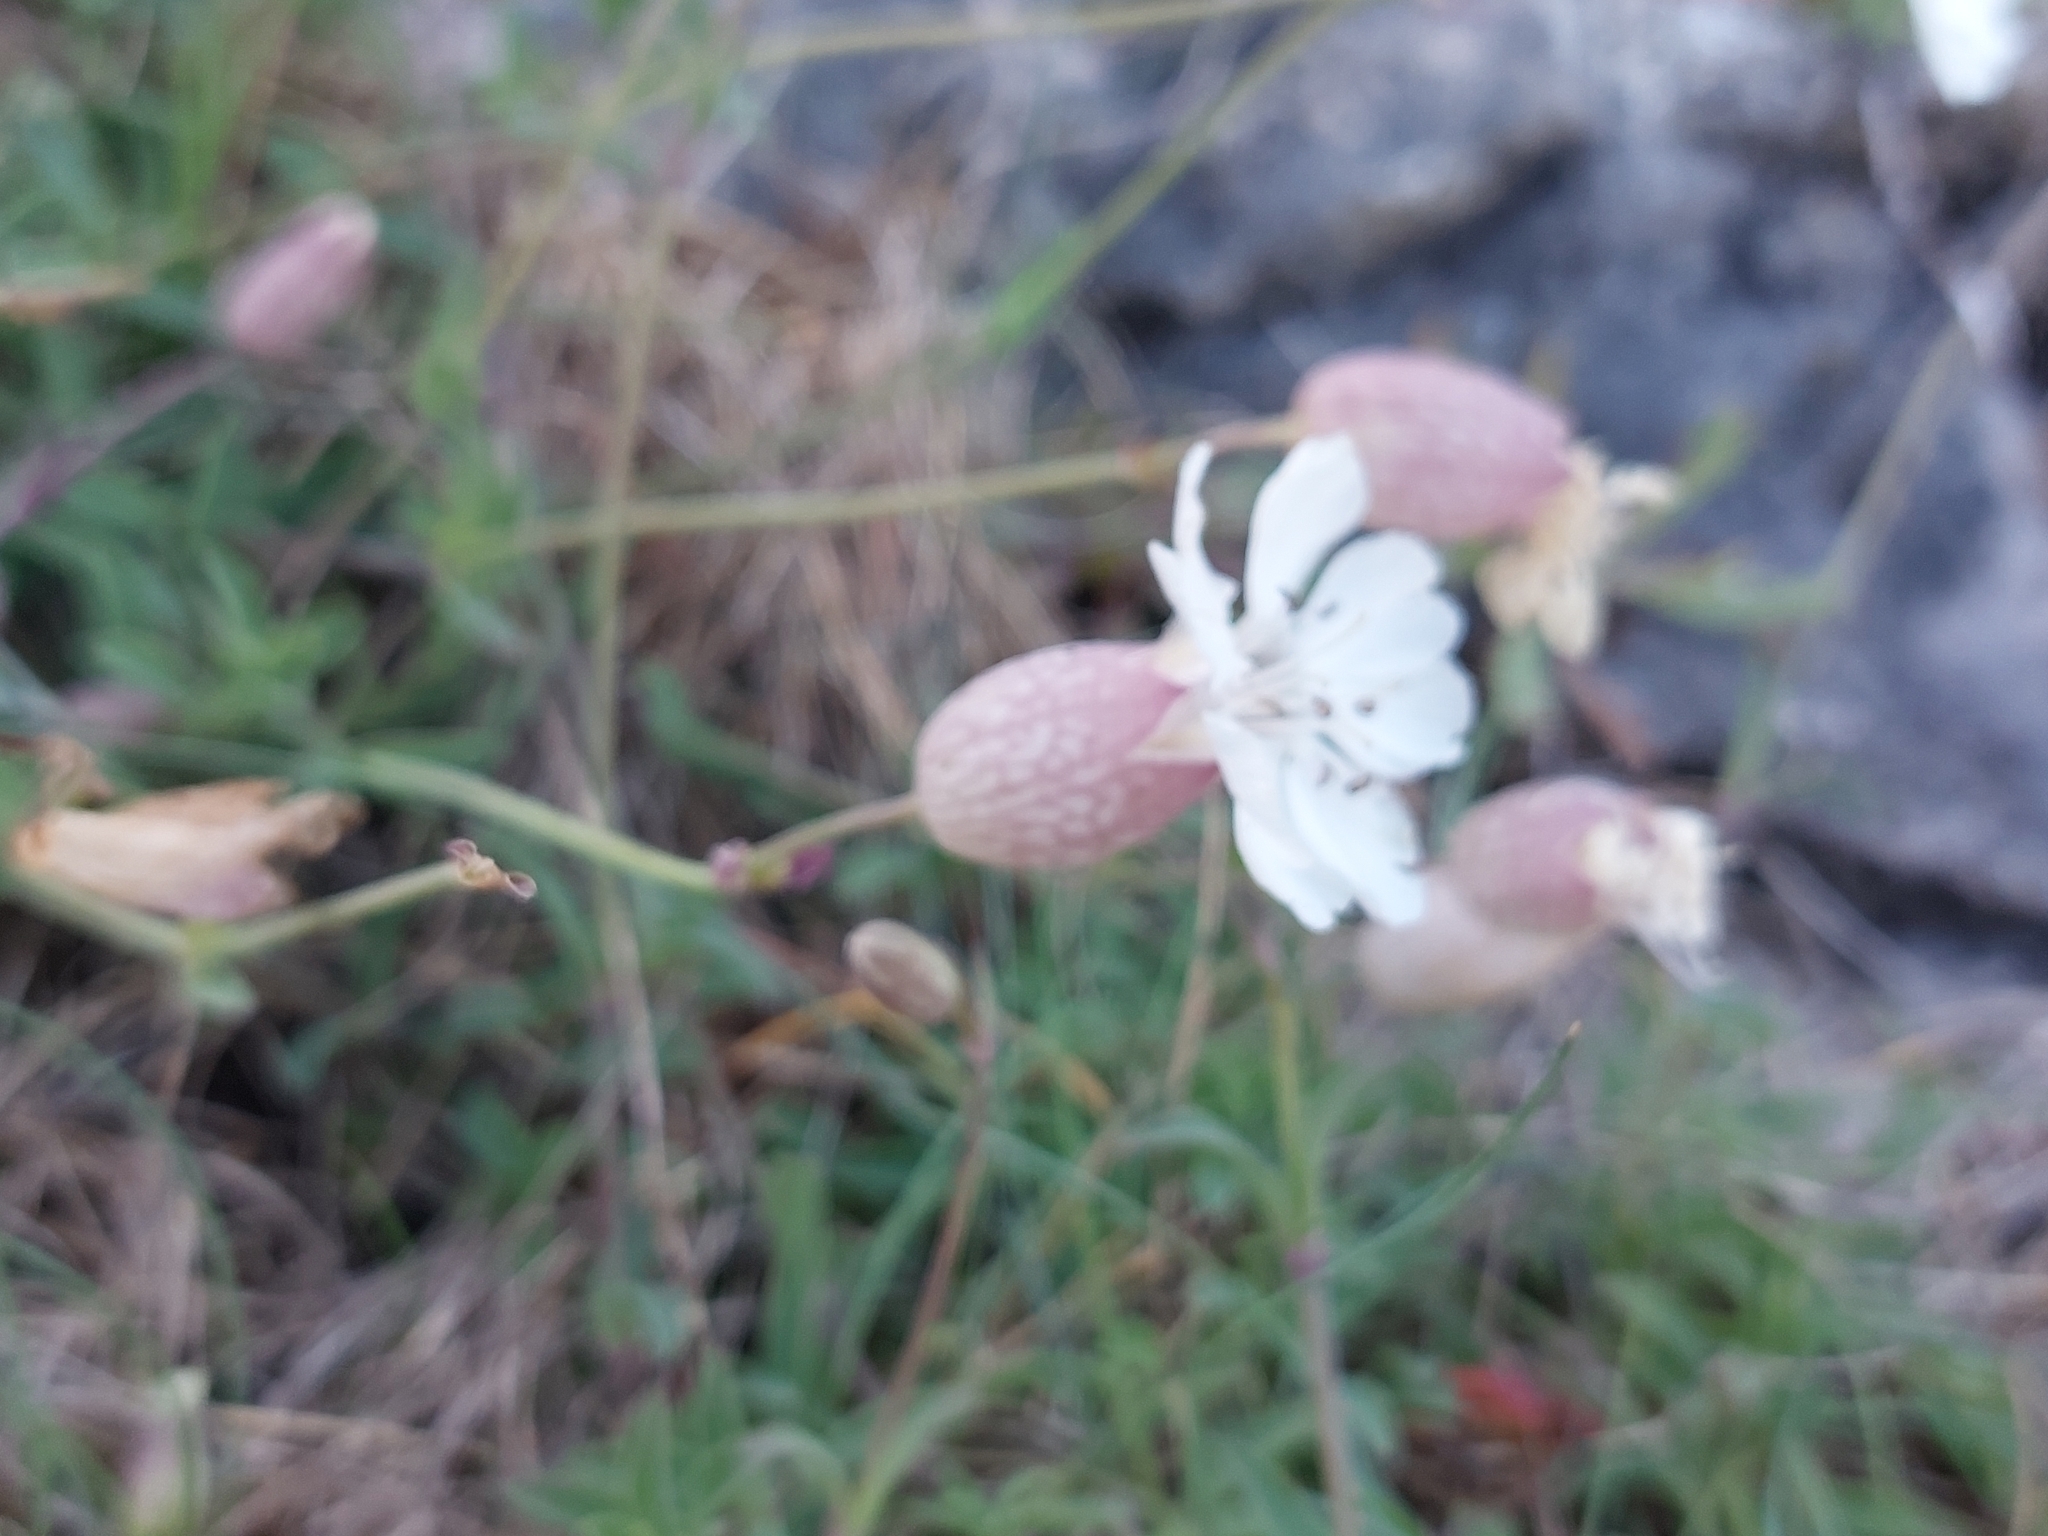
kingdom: Plantae
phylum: Tracheophyta
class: Magnoliopsida
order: Caryophyllales
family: Caryophyllaceae
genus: Silene
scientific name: Silene uniflora
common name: Sea campion
